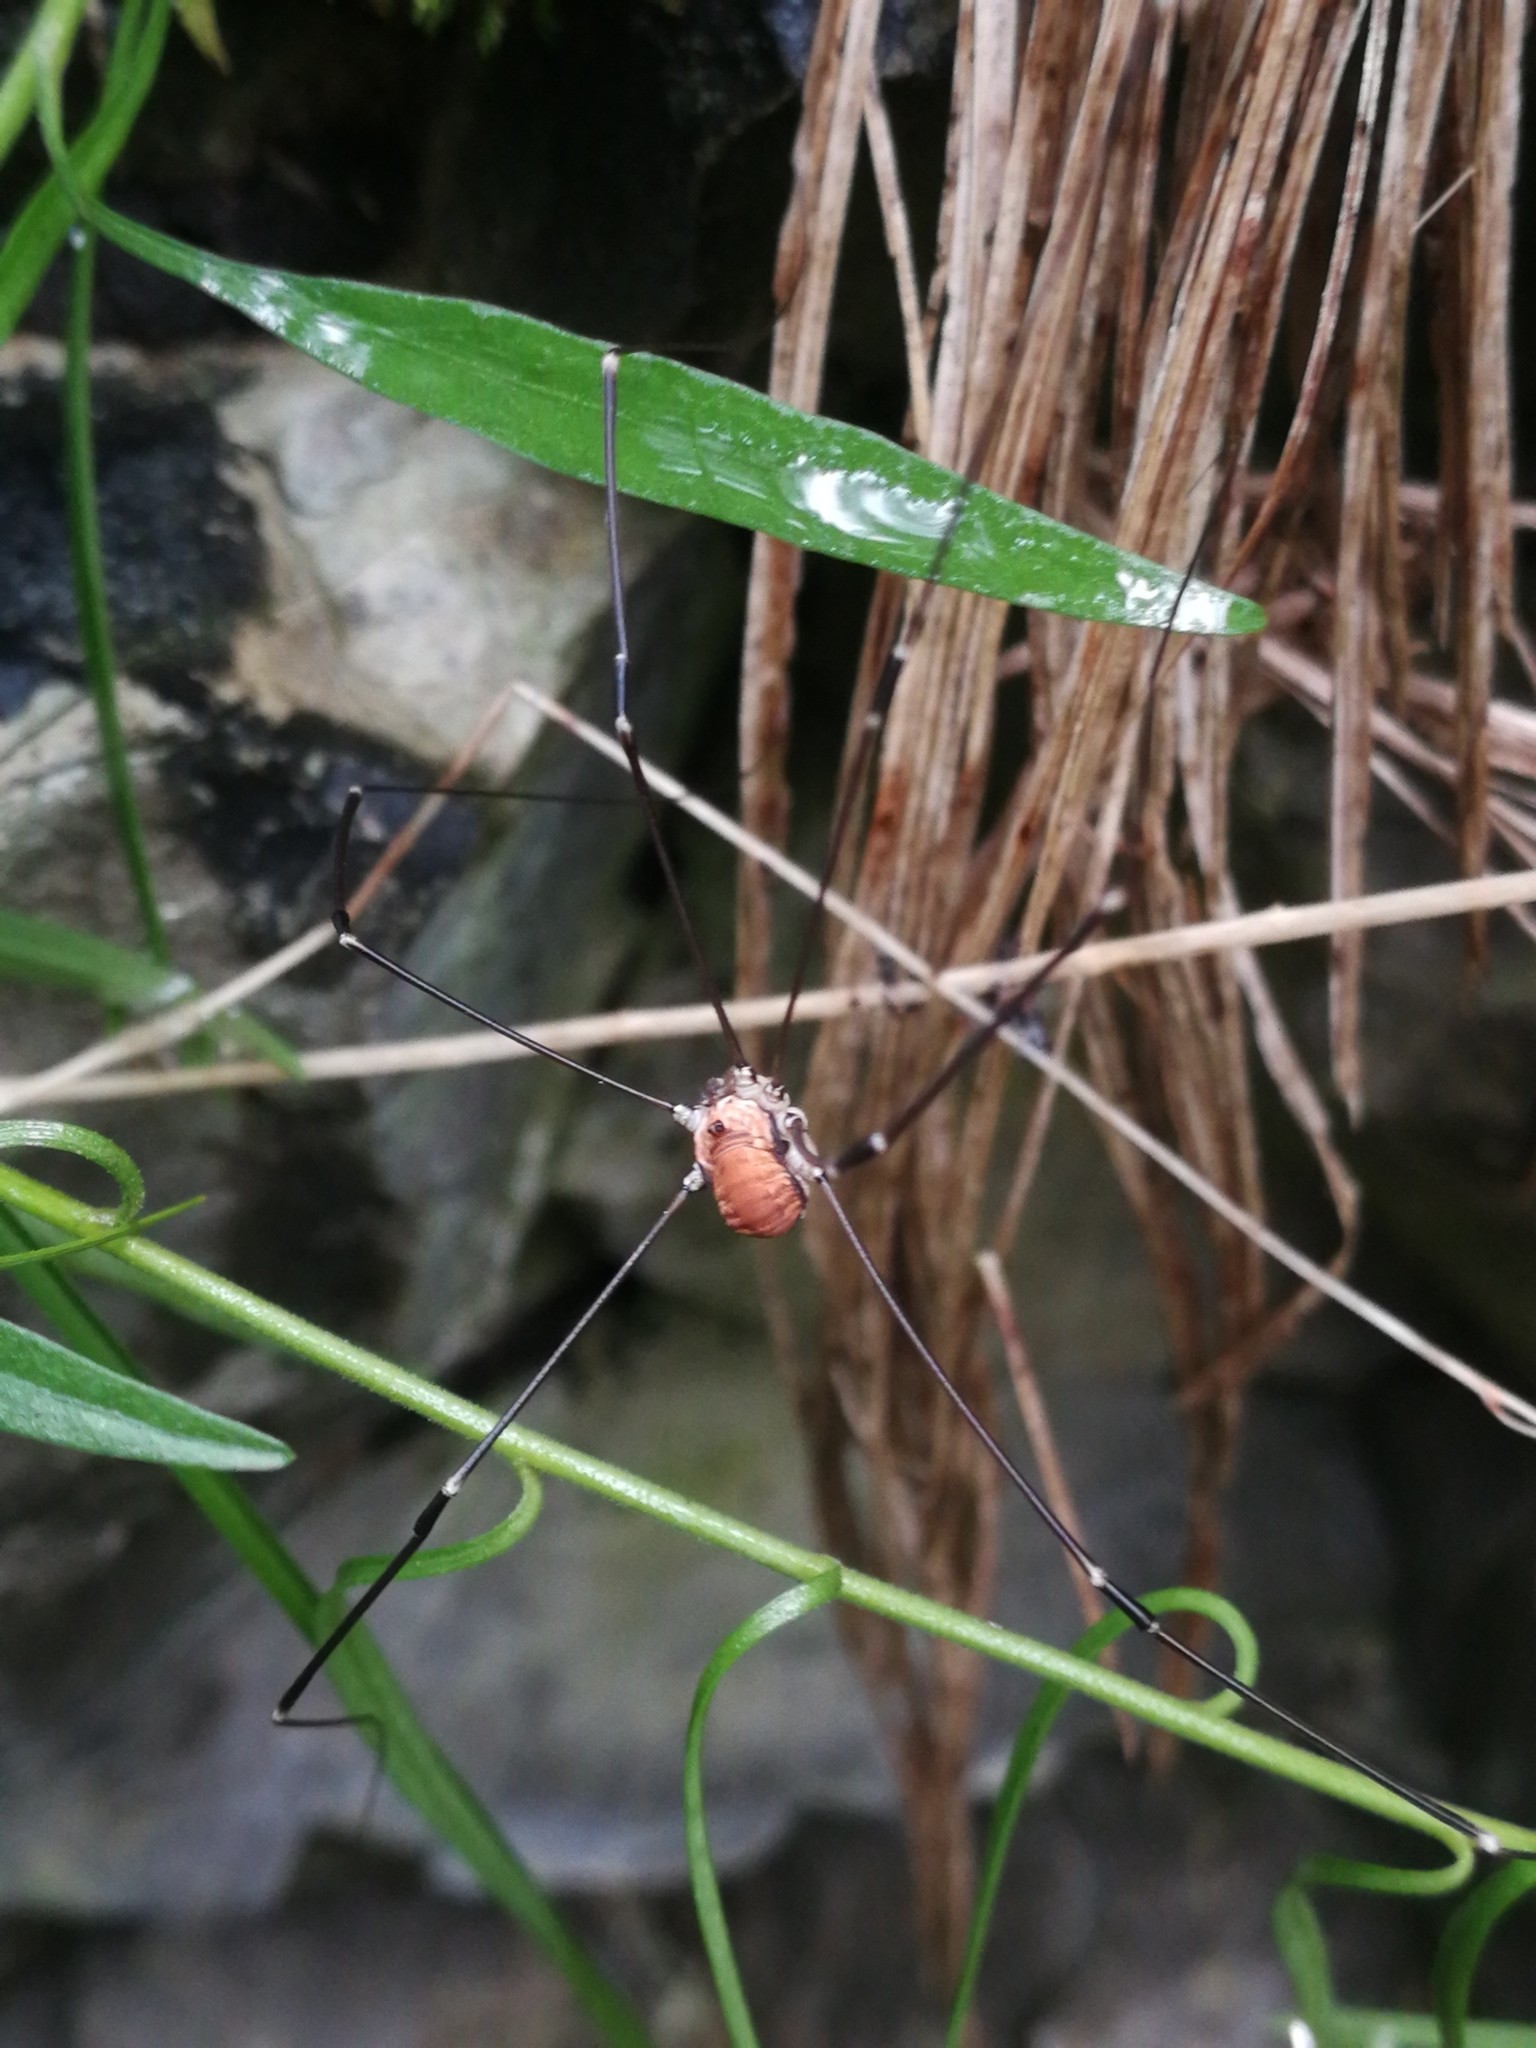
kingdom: Animalia
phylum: Arthropoda
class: Arachnida
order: Opiliones
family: Sclerosomatidae
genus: Leiobunum
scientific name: Leiobunum limbatum
